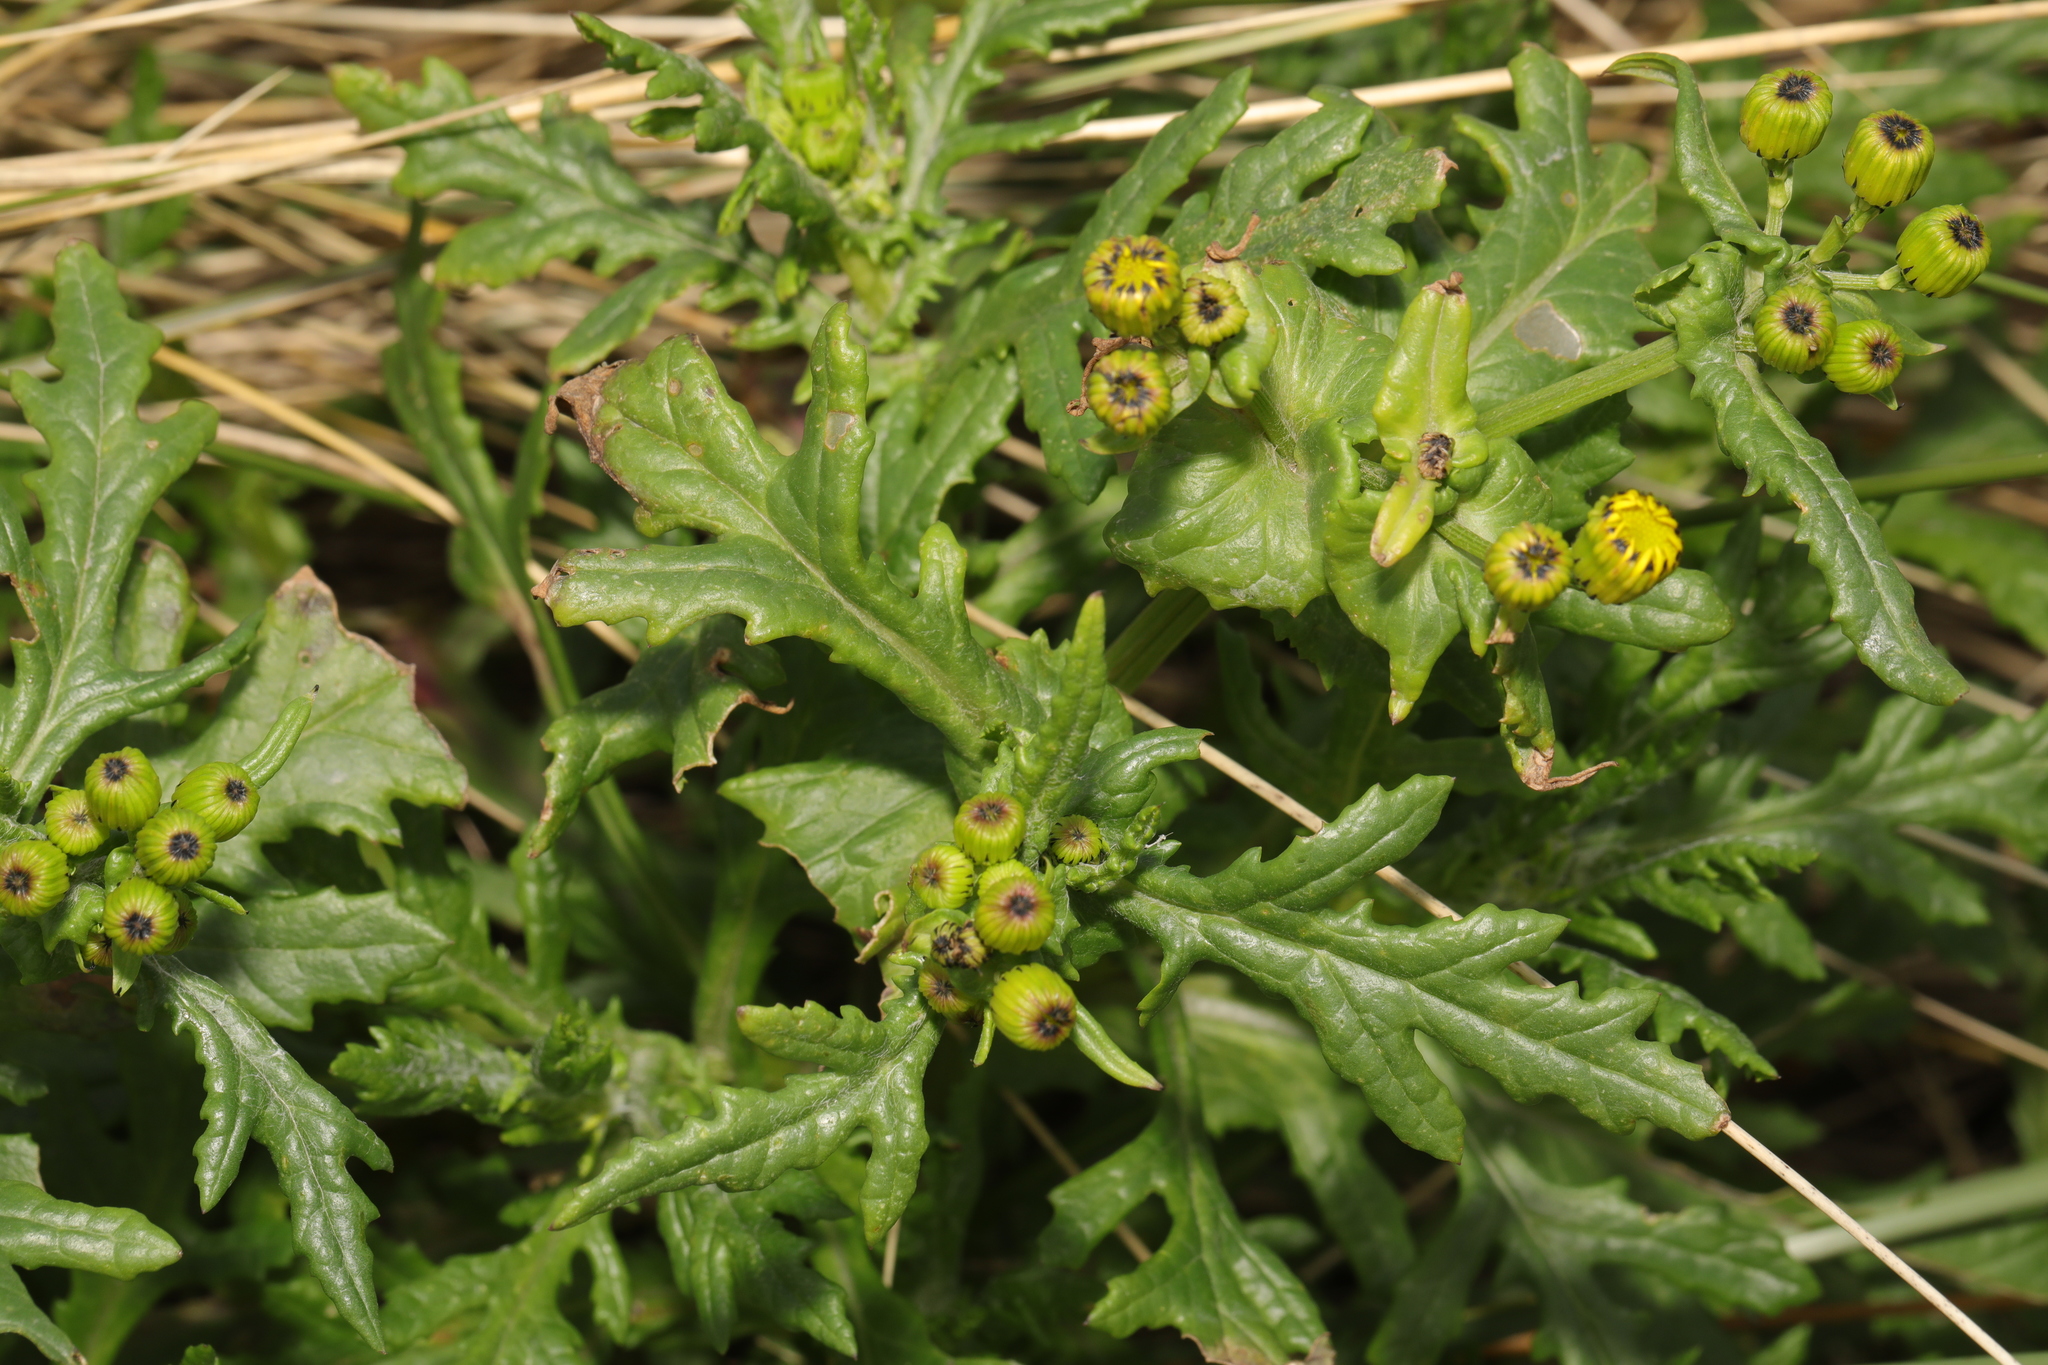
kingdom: Plantae
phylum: Tracheophyta
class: Magnoliopsida
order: Asterales
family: Asteraceae
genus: Senecio
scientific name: Senecio squalidus
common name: Oxford ragwort
